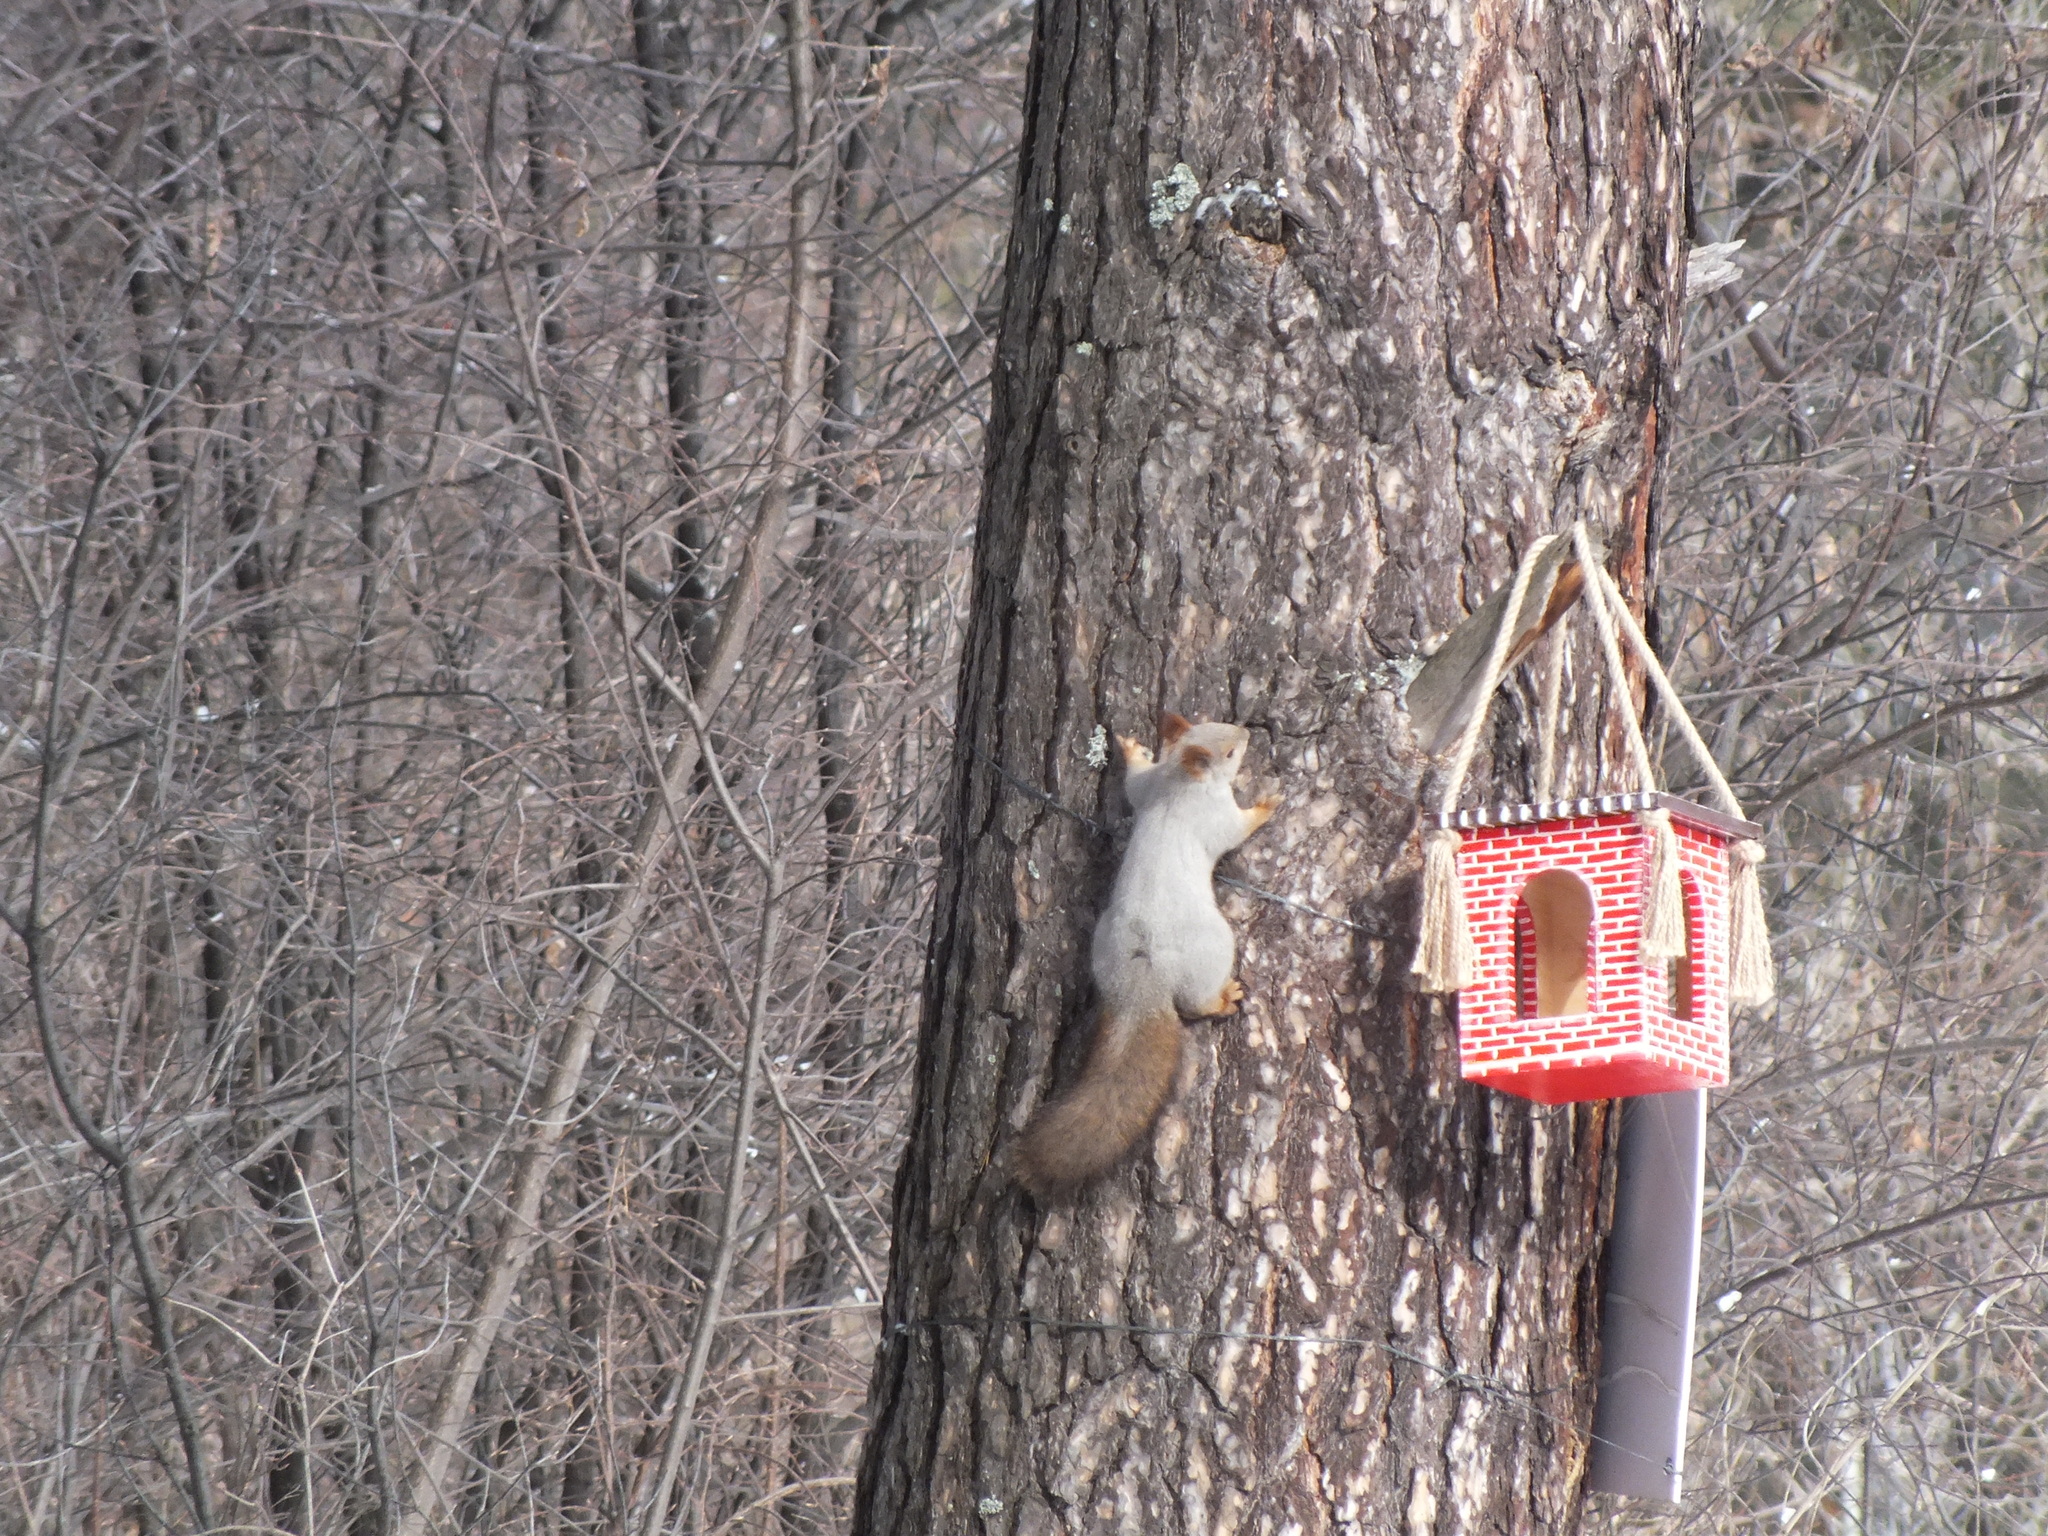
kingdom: Animalia
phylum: Chordata
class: Mammalia
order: Rodentia
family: Sciuridae
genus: Sciurus
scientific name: Sciurus vulgaris
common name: Eurasian red squirrel
